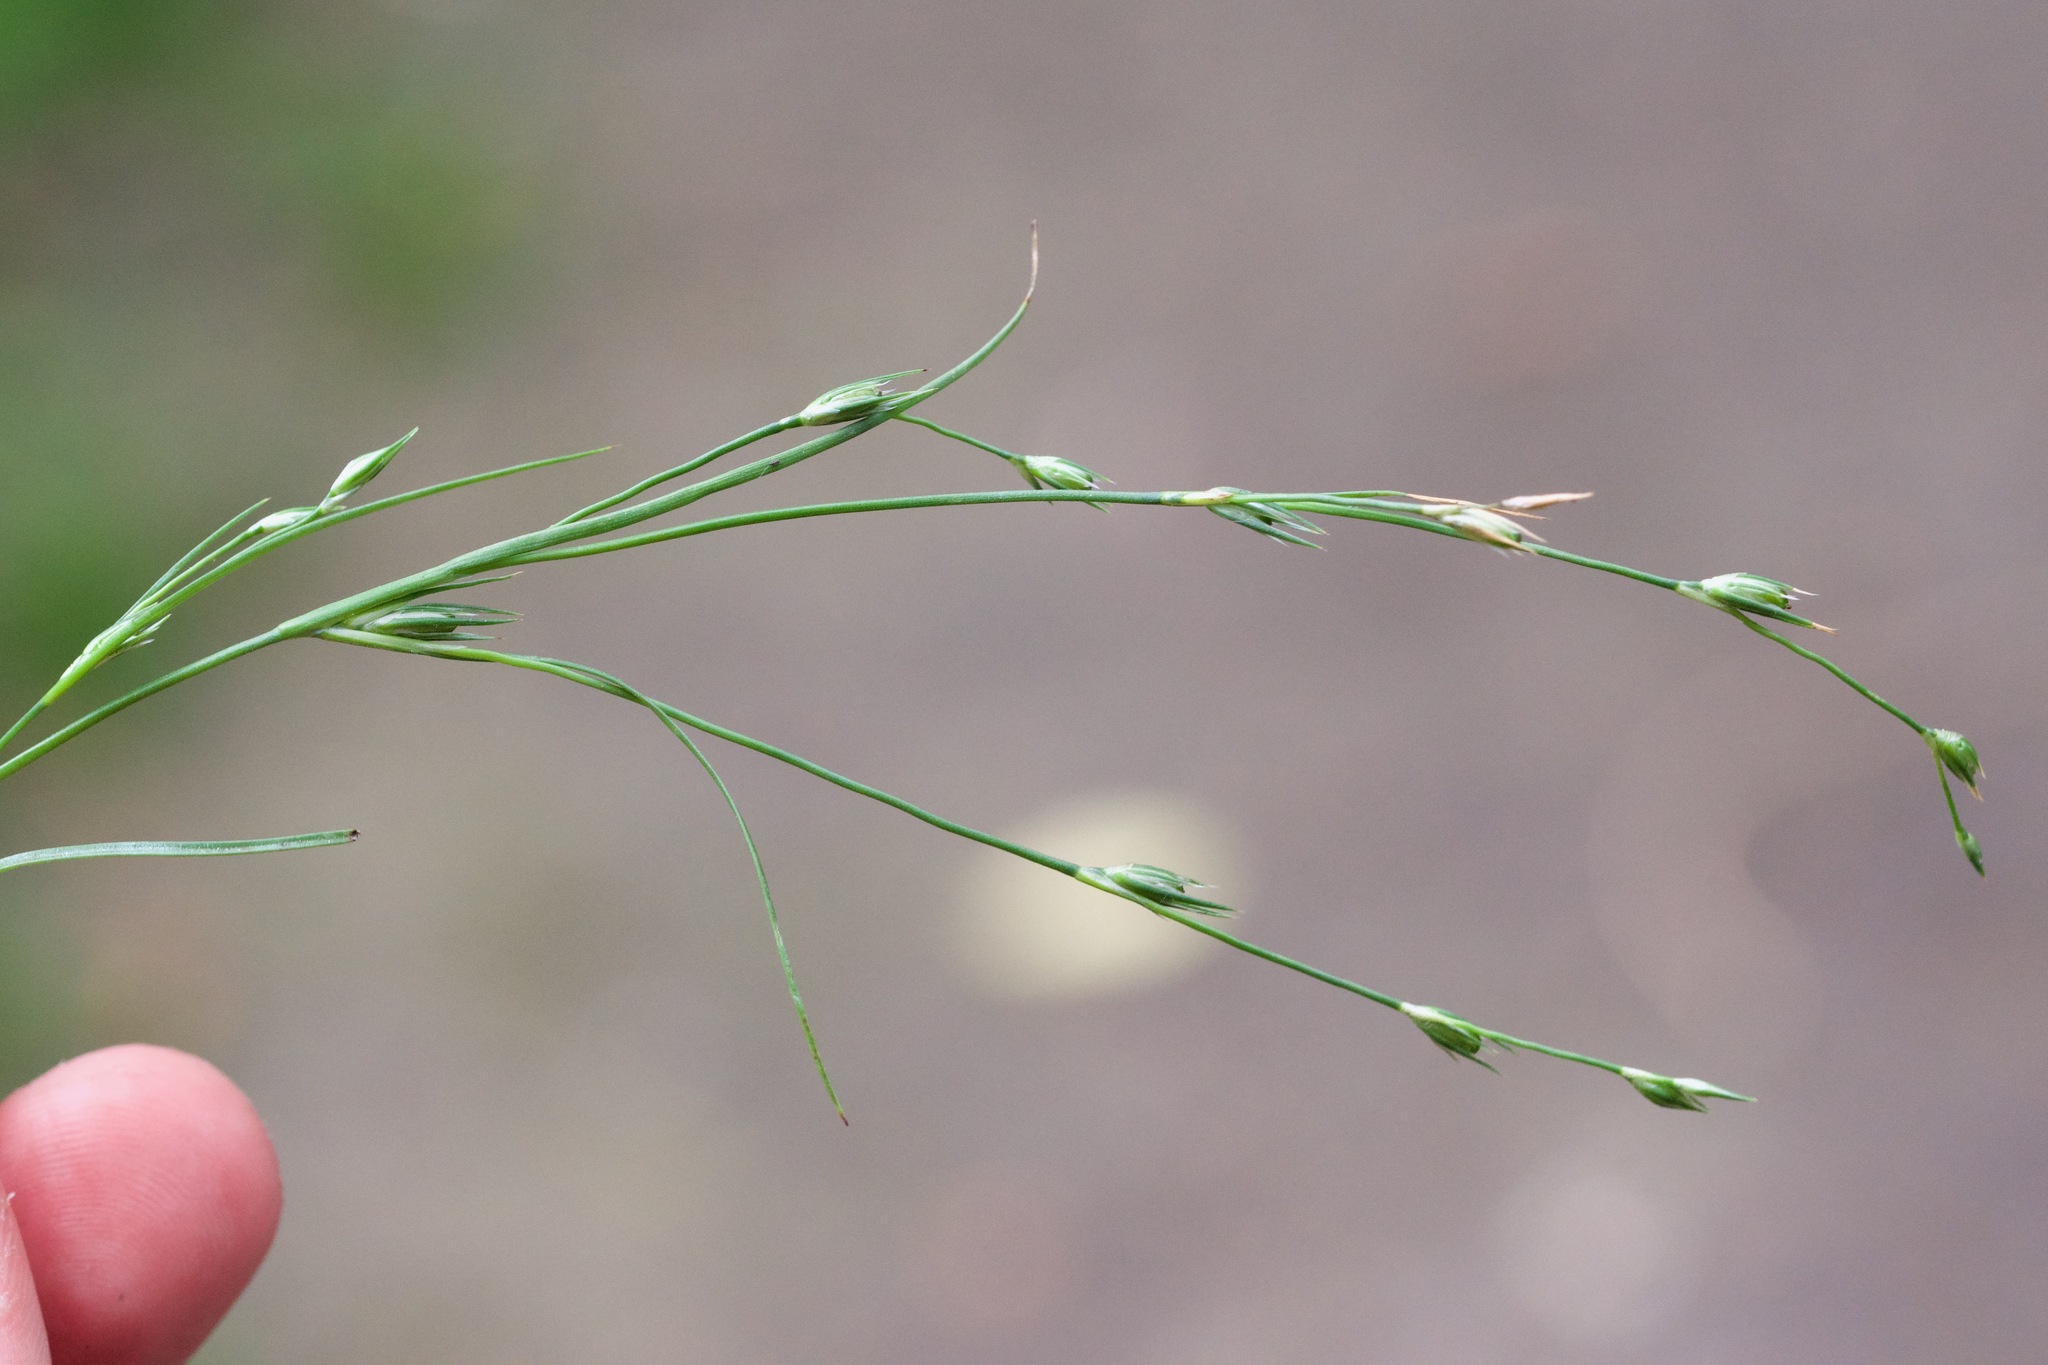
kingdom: Plantae
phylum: Tracheophyta
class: Liliopsida
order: Poales
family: Juncaceae
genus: Juncus
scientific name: Juncus bufonius
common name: Toad rush
